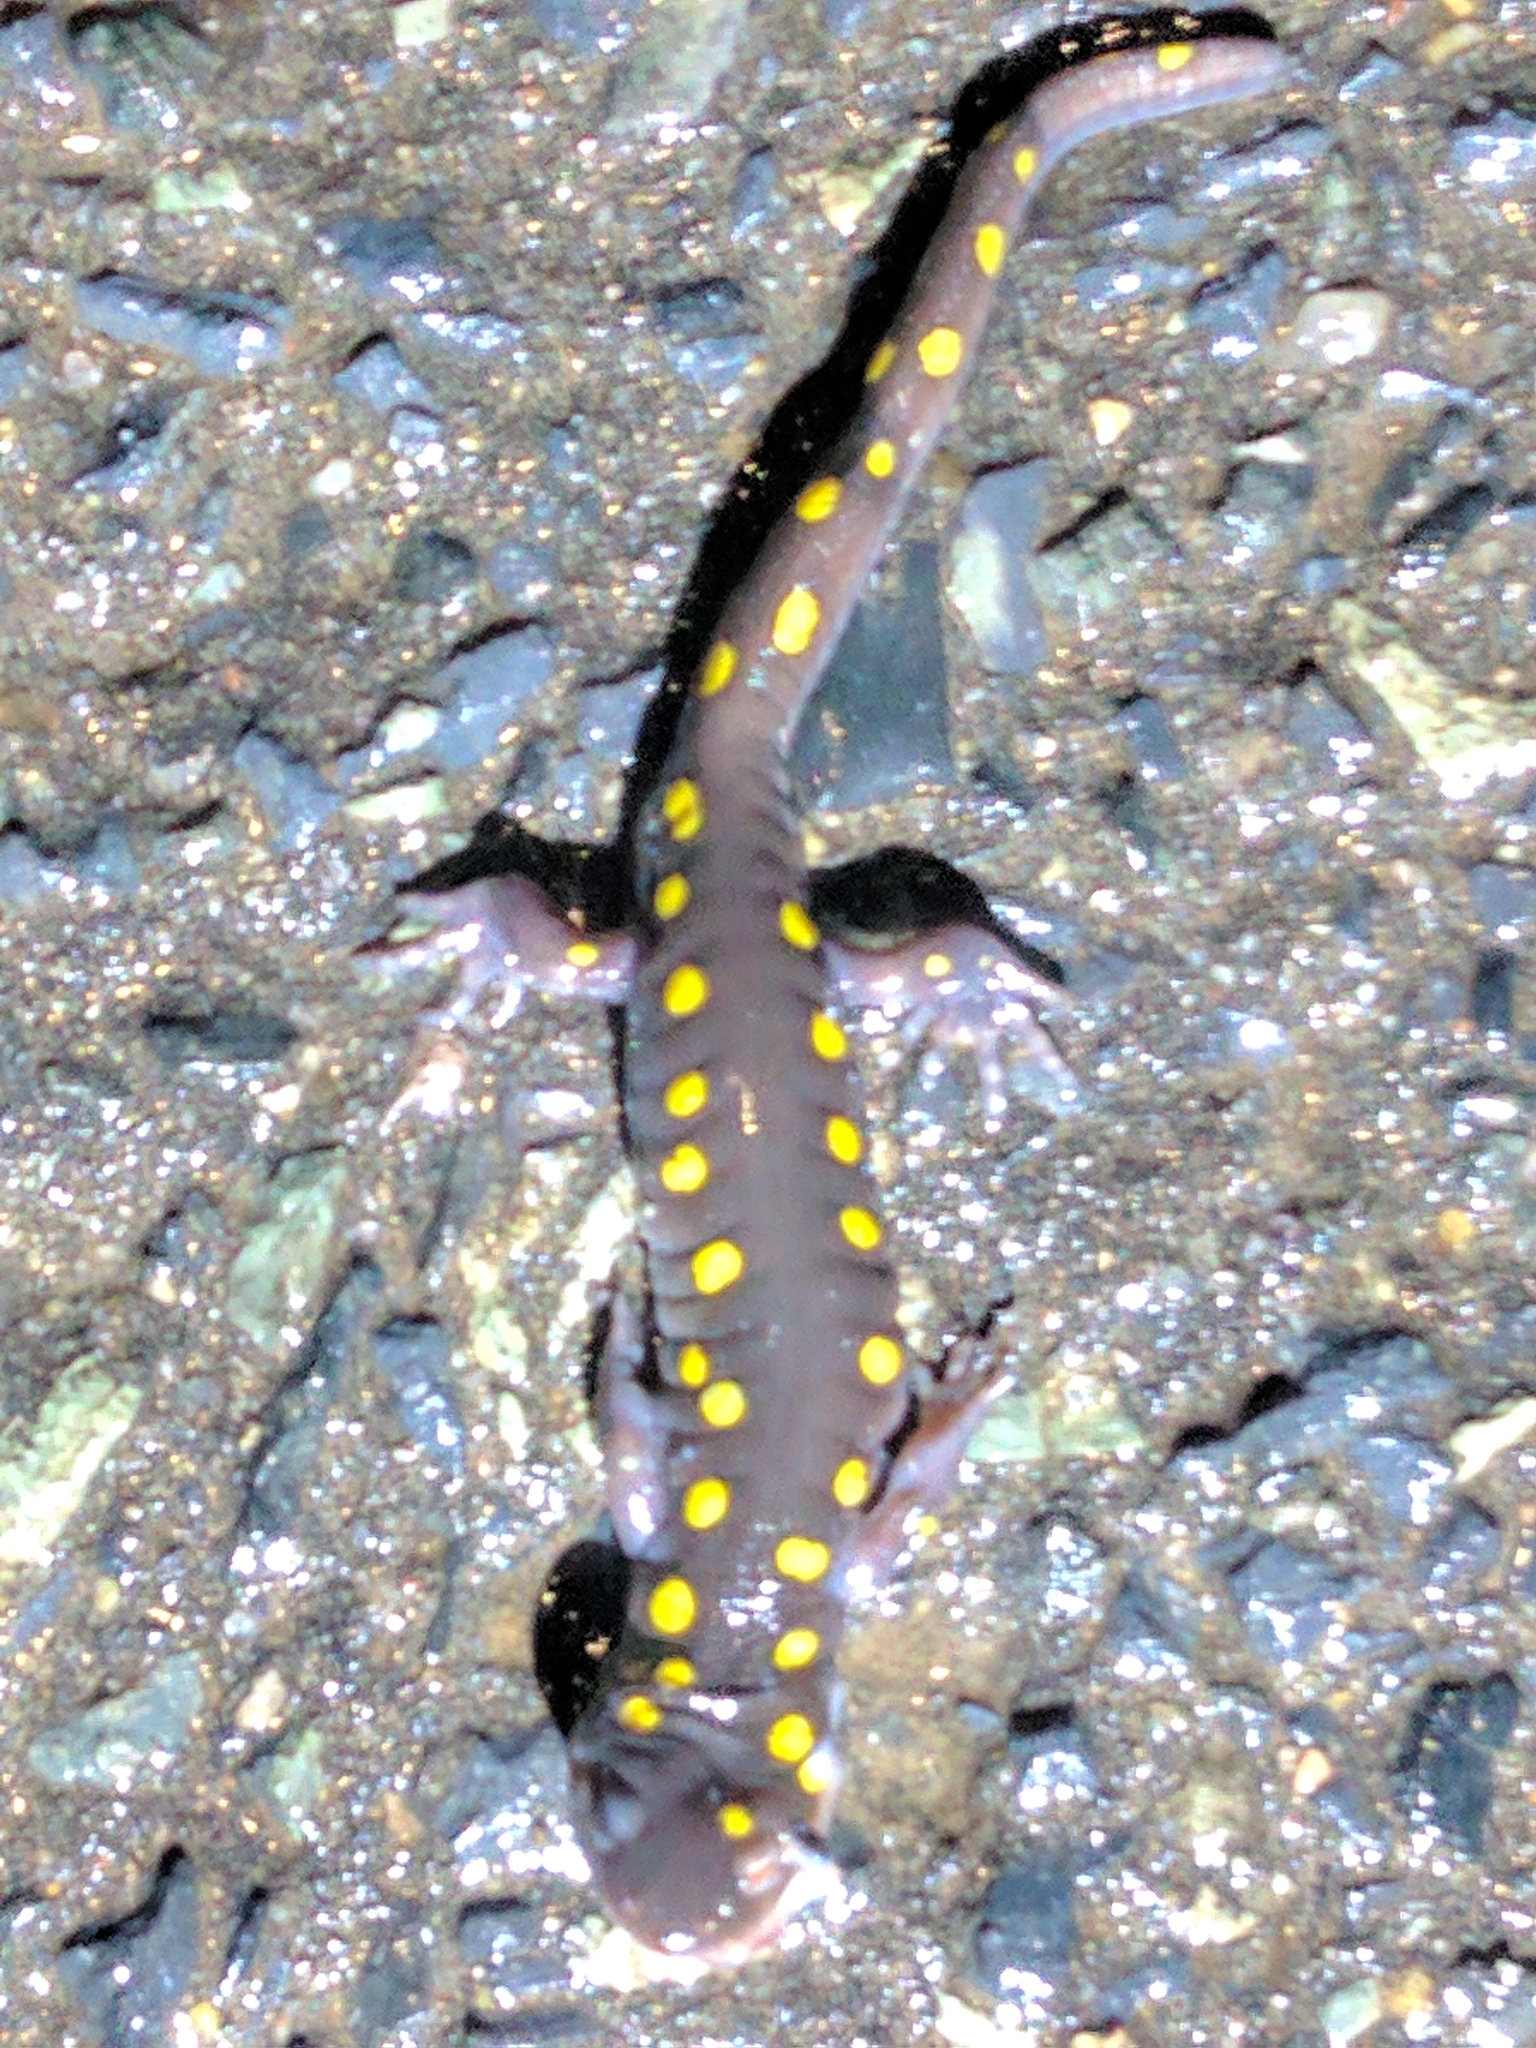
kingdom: Animalia
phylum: Chordata
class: Amphibia
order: Caudata
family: Ambystomatidae
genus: Ambystoma
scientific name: Ambystoma maculatum
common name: Spotted salamander
